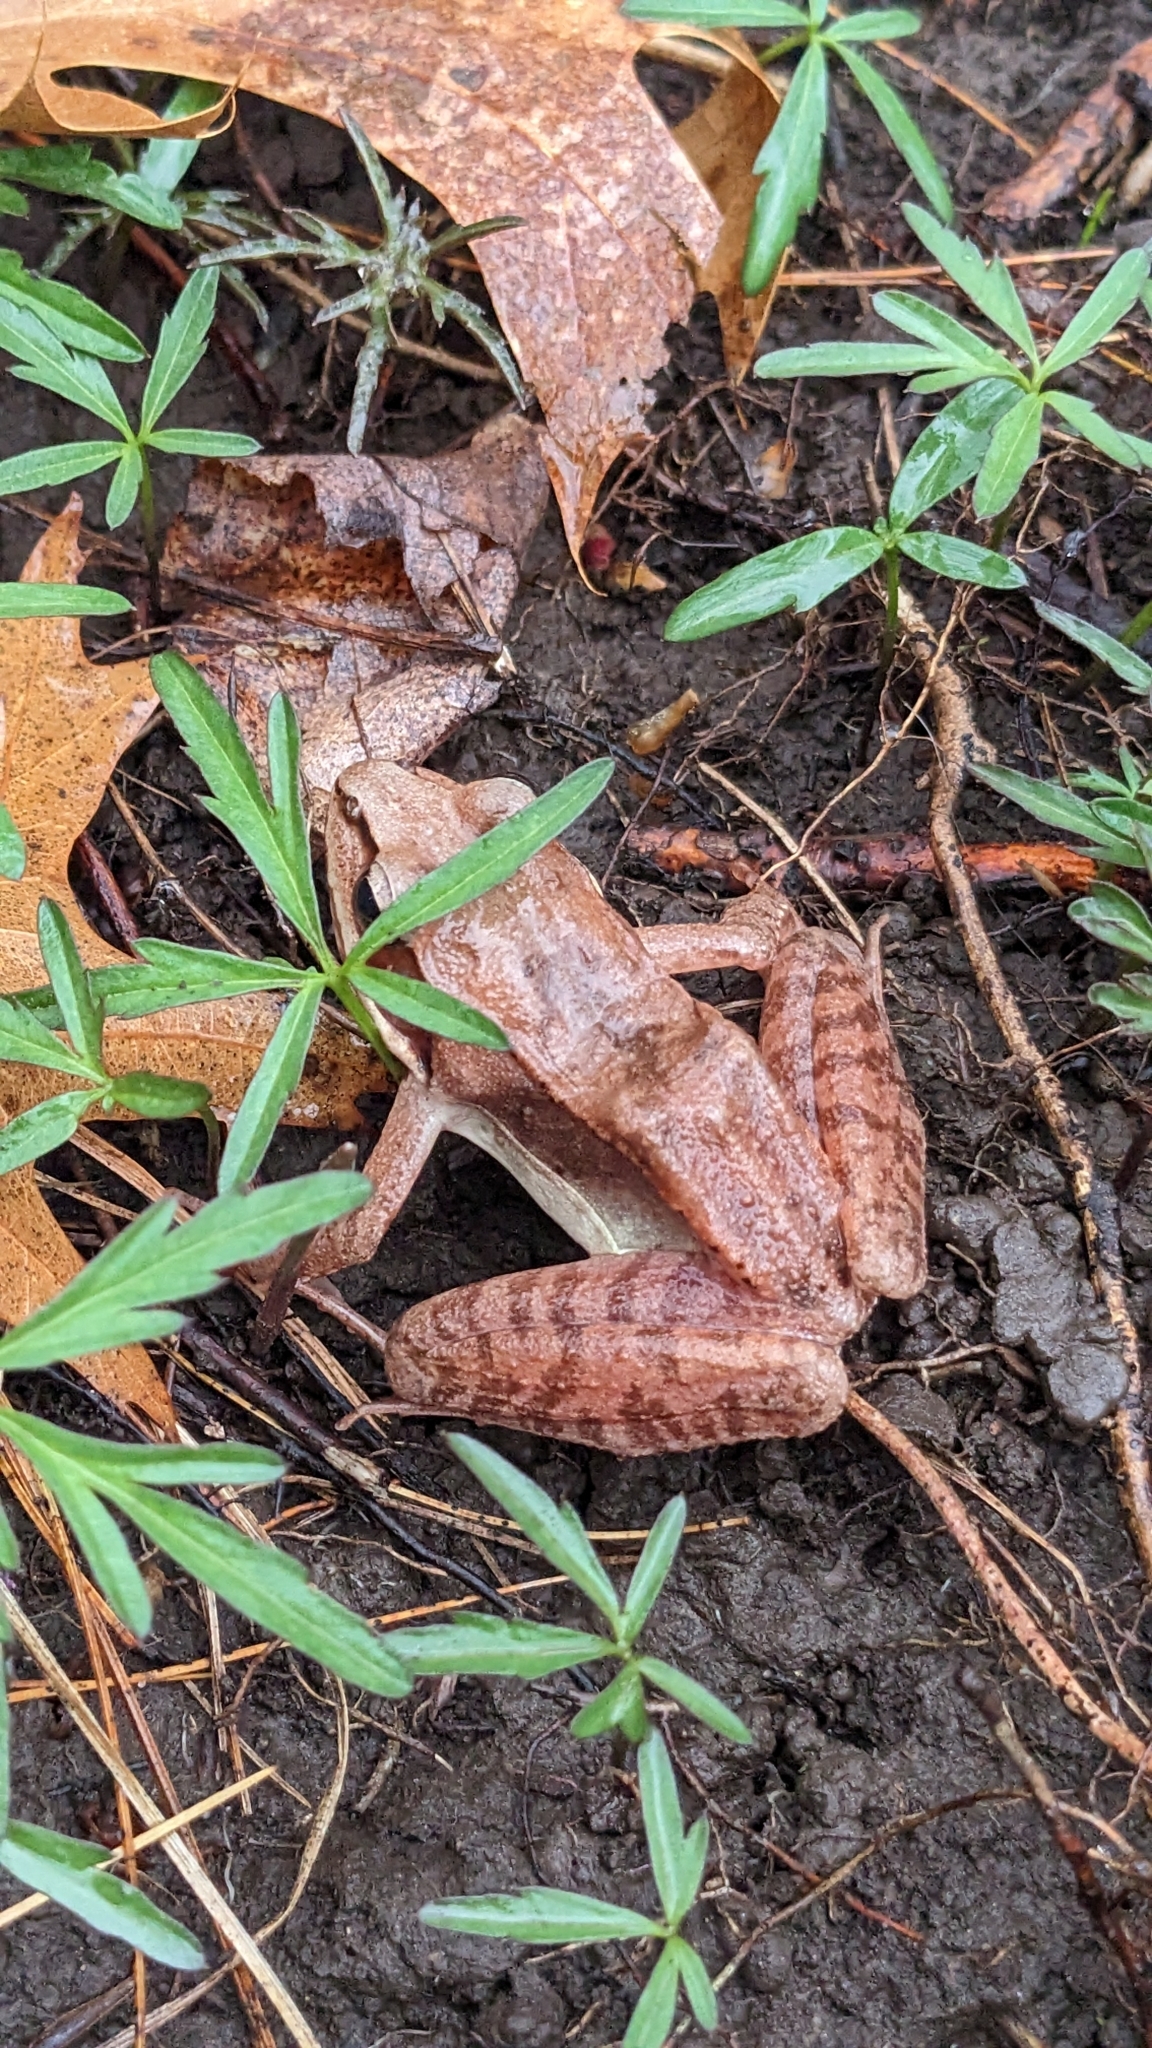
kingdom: Animalia
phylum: Chordata
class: Amphibia
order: Anura
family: Ranidae
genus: Lithobates
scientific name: Lithobates sylvaticus
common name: Wood frog
